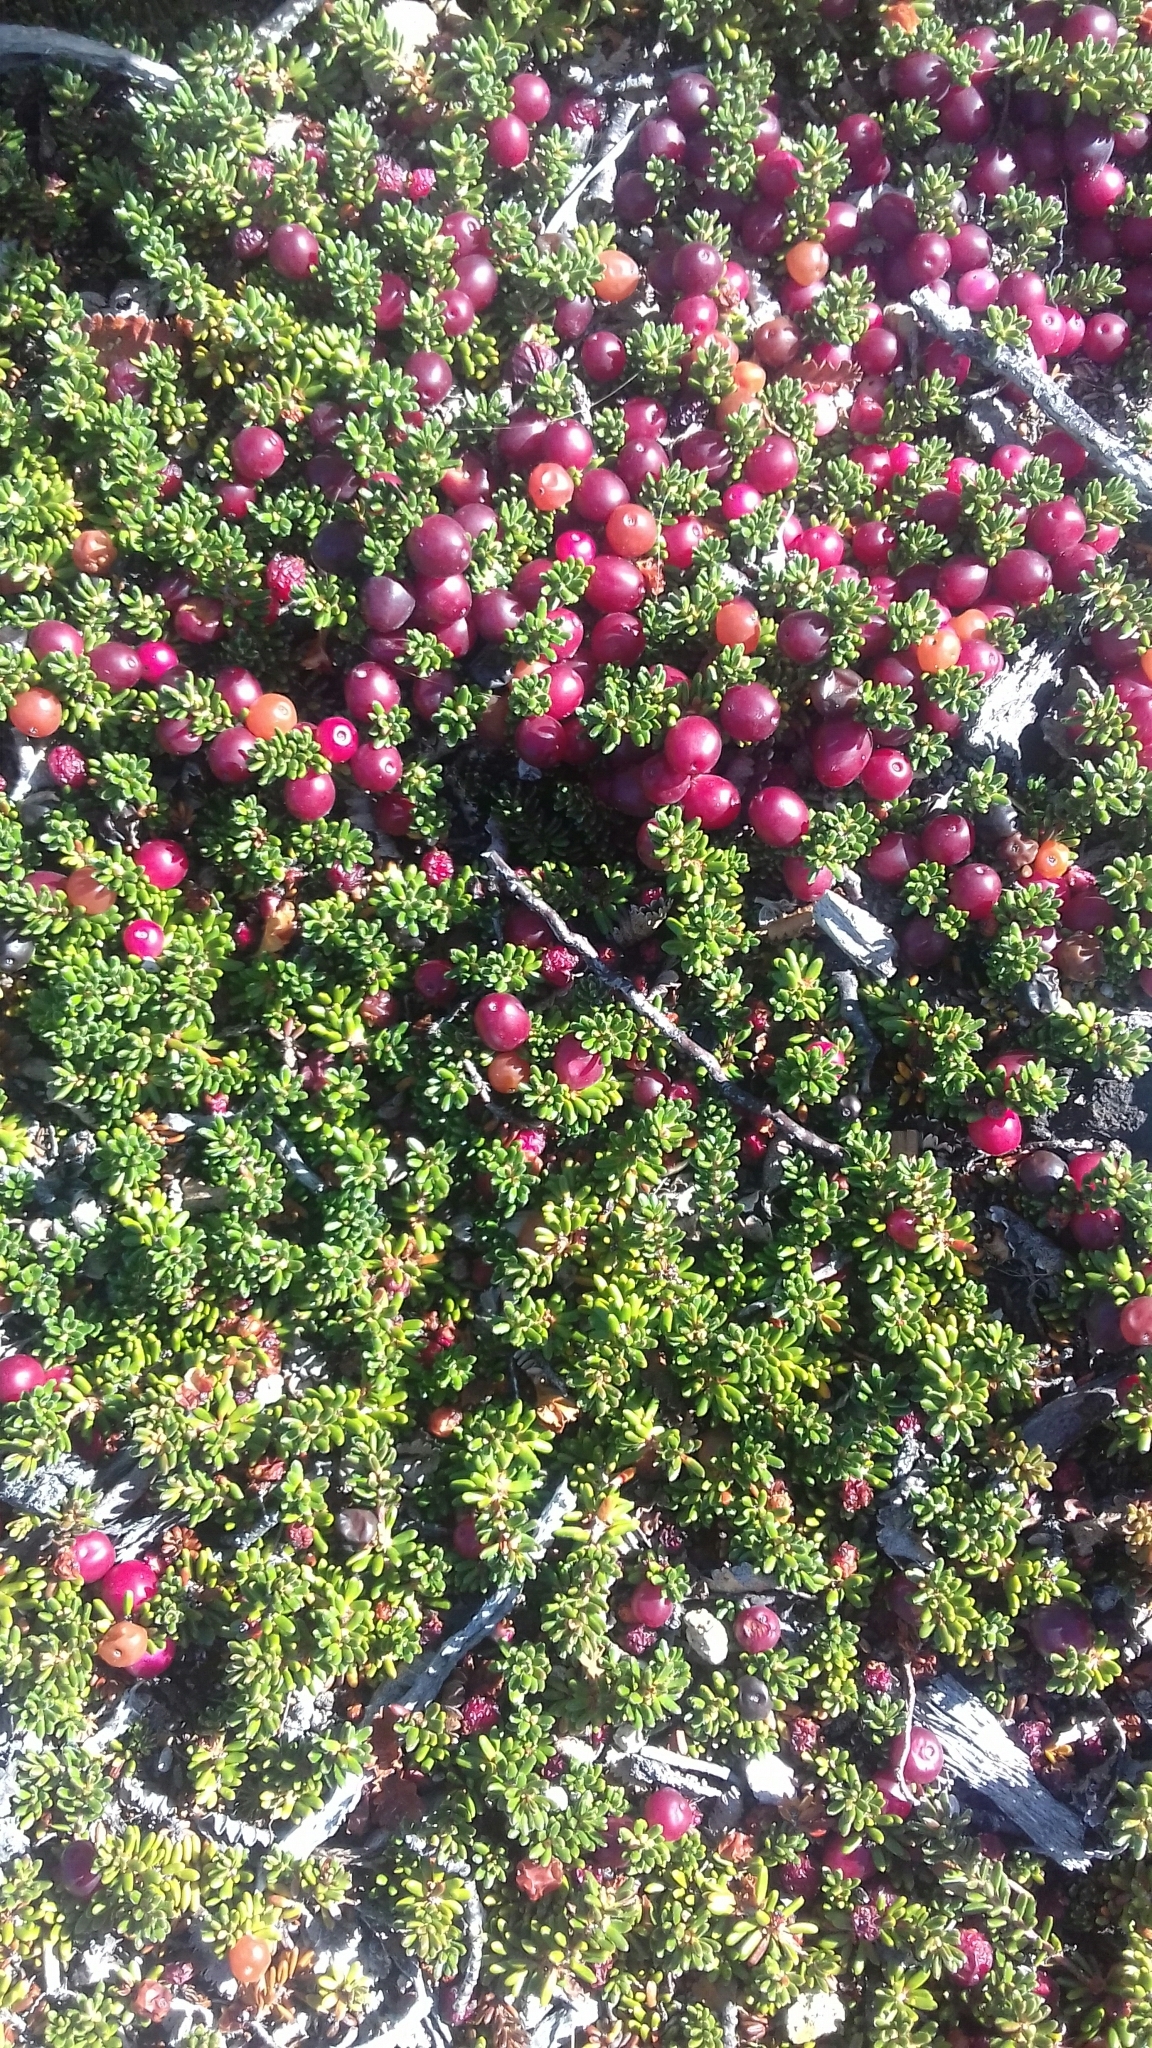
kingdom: Plantae
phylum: Tracheophyta
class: Magnoliopsida
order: Ericales
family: Ericaceae
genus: Empetrum
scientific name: Empetrum rubrum
